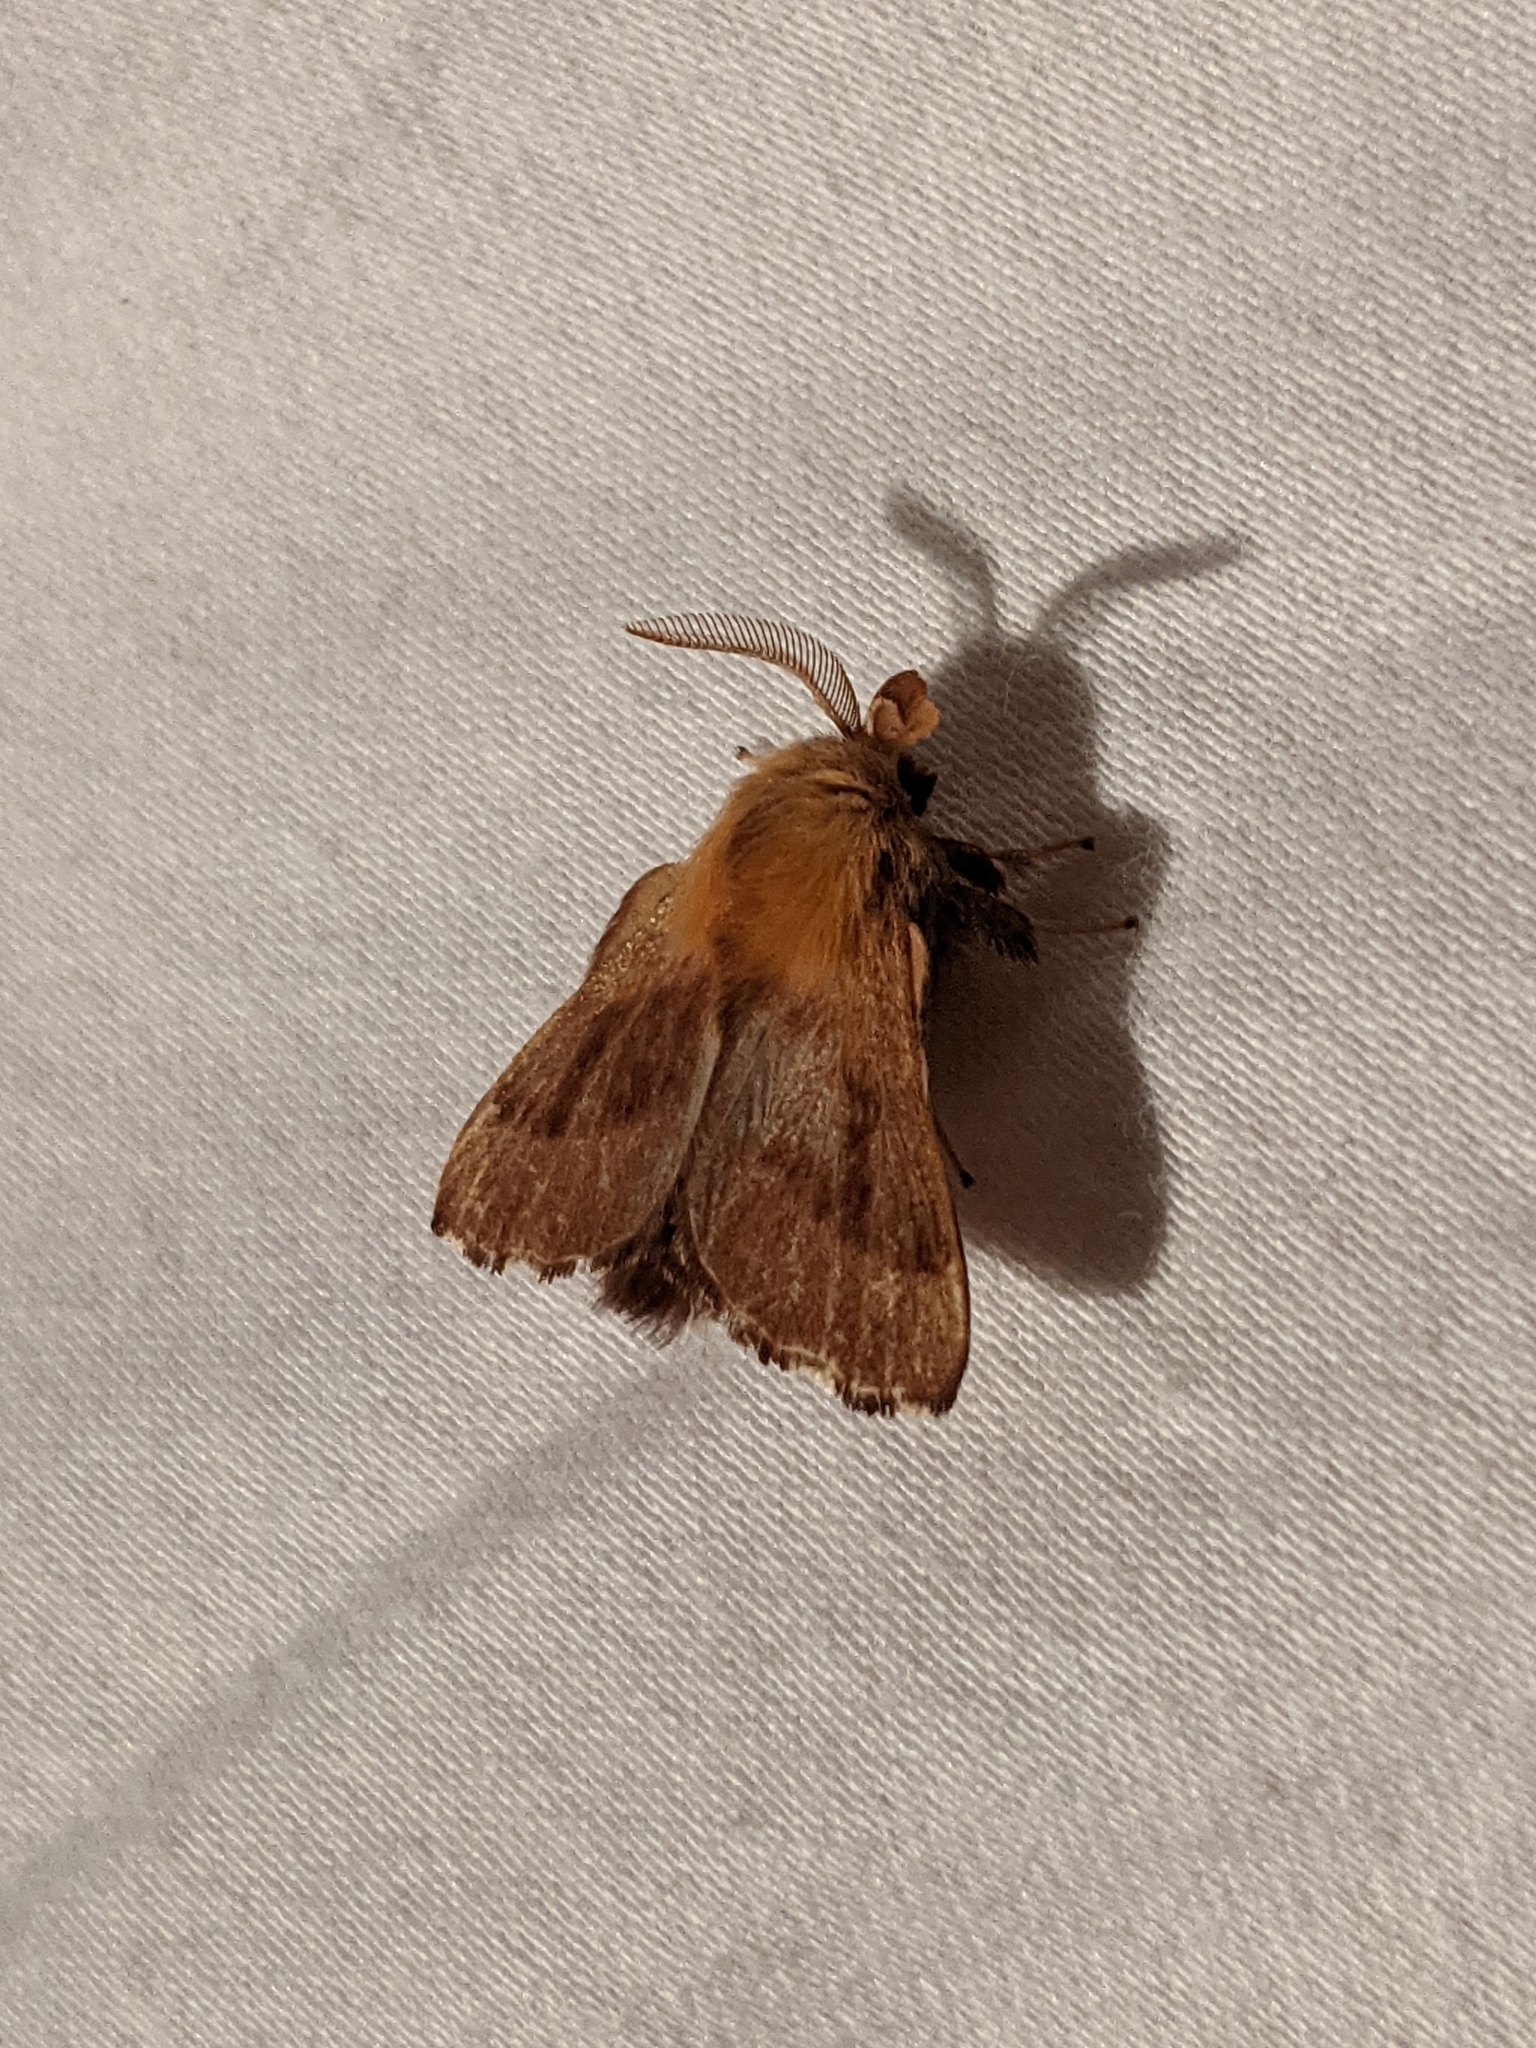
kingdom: Animalia
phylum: Arthropoda
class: Insecta
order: Lepidoptera
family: Lasiocampidae
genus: Malacosoma
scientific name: Malacosoma disstria
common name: Forest tent caterpillar
